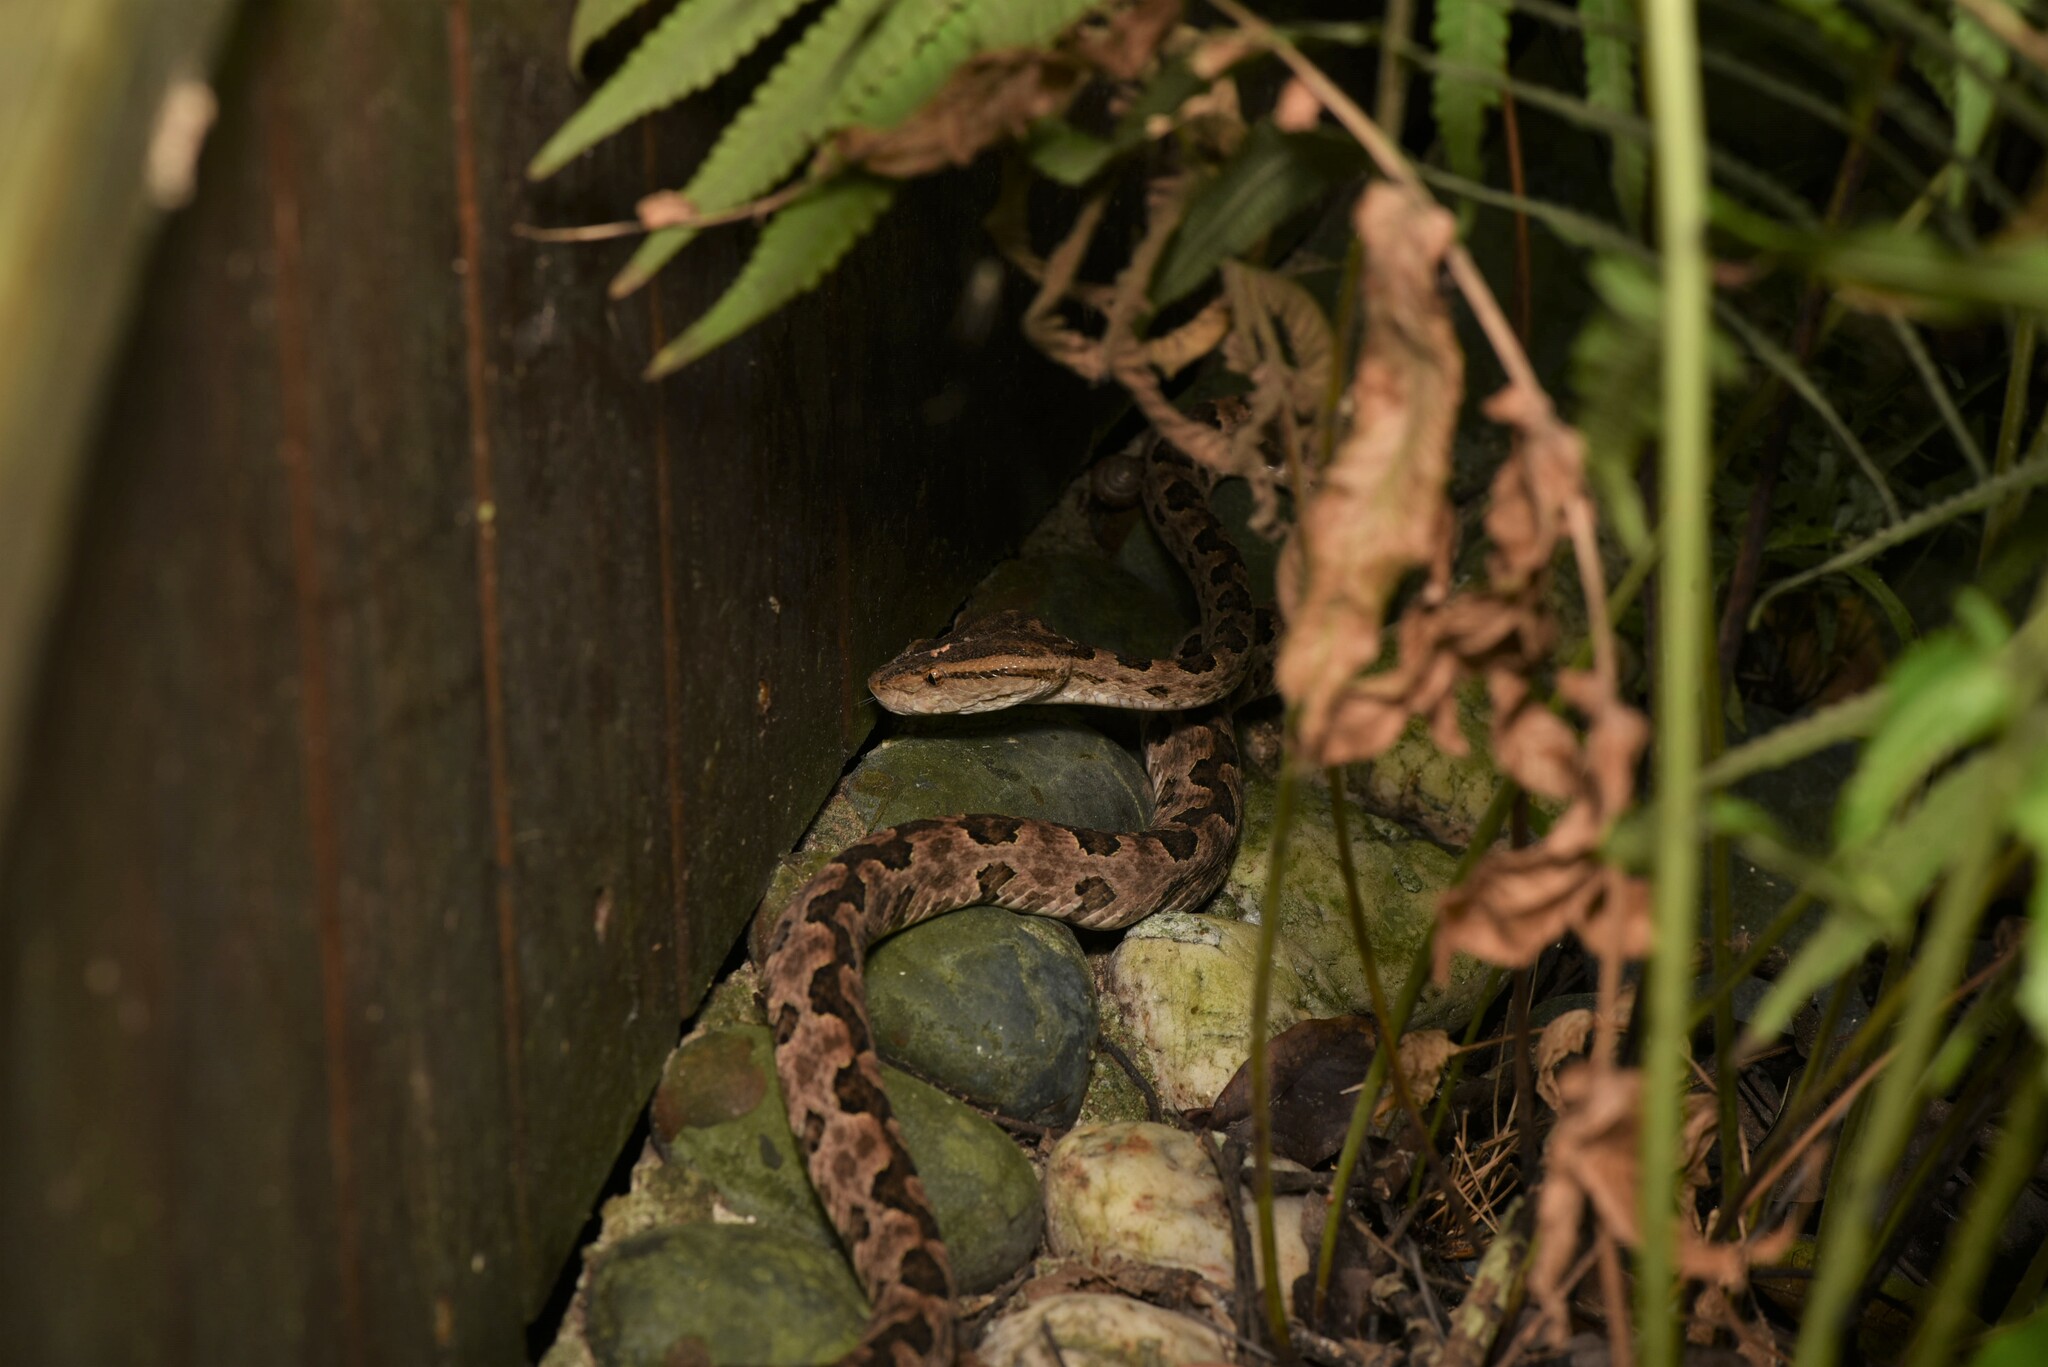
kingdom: Animalia
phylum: Chordata
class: Squamata
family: Viperidae
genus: Protobothrops
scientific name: Protobothrops mucrosquamatus
